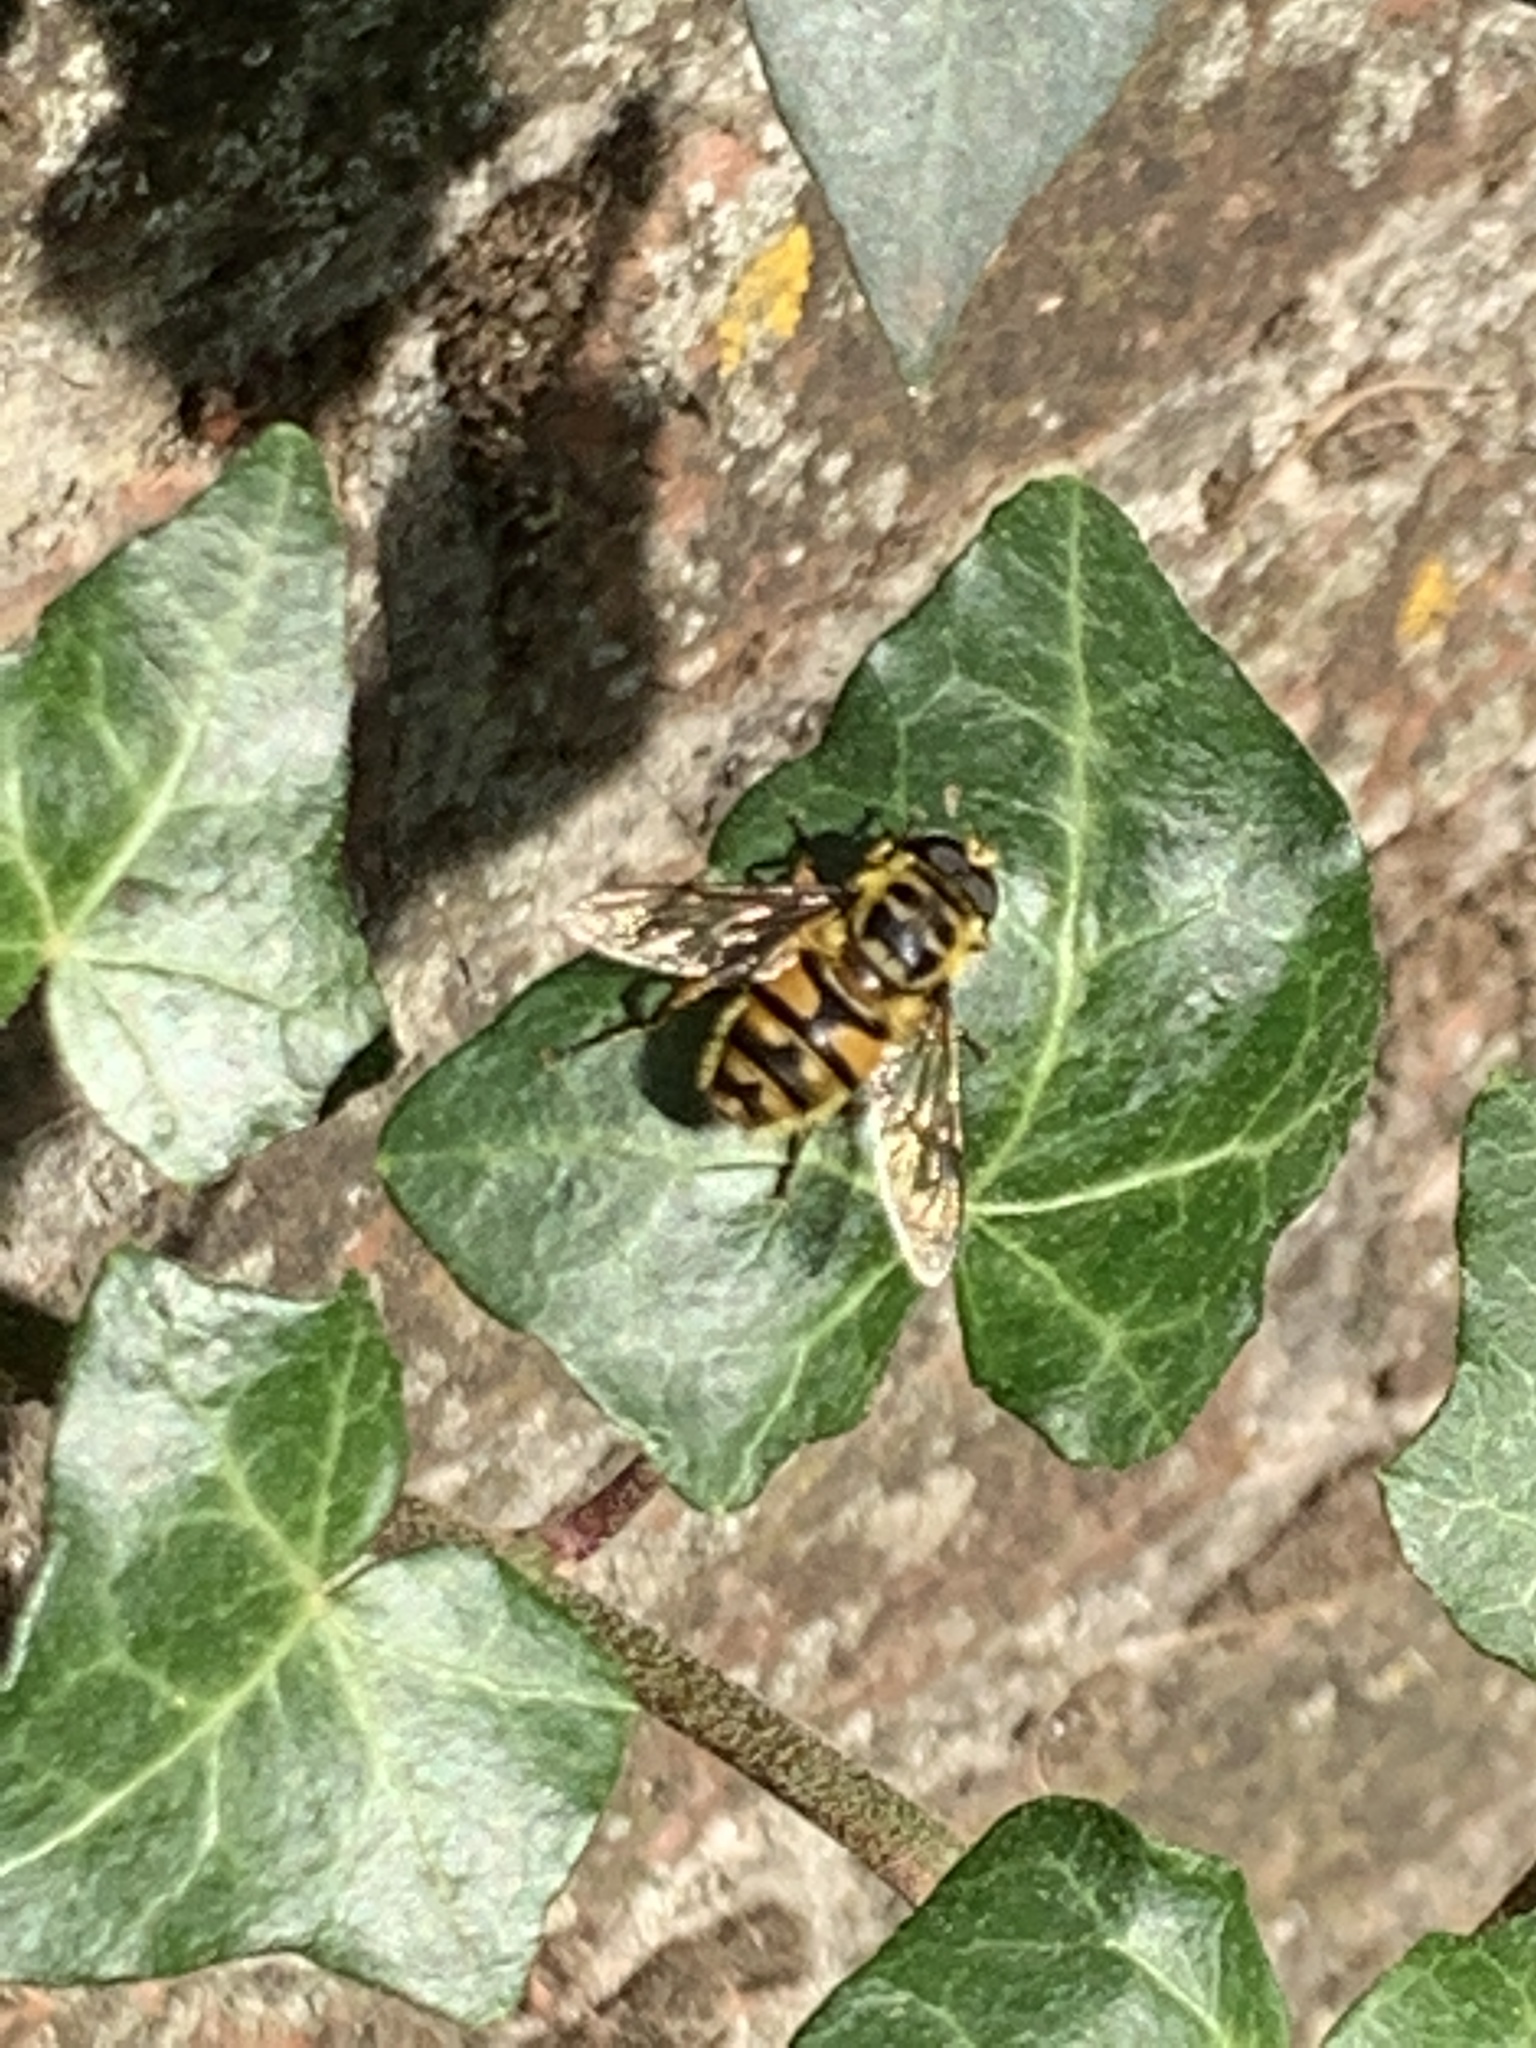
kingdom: Animalia
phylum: Arthropoda
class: Insecta
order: Diptera
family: Syrphidae
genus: Myathropa
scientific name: Myathropa florea
